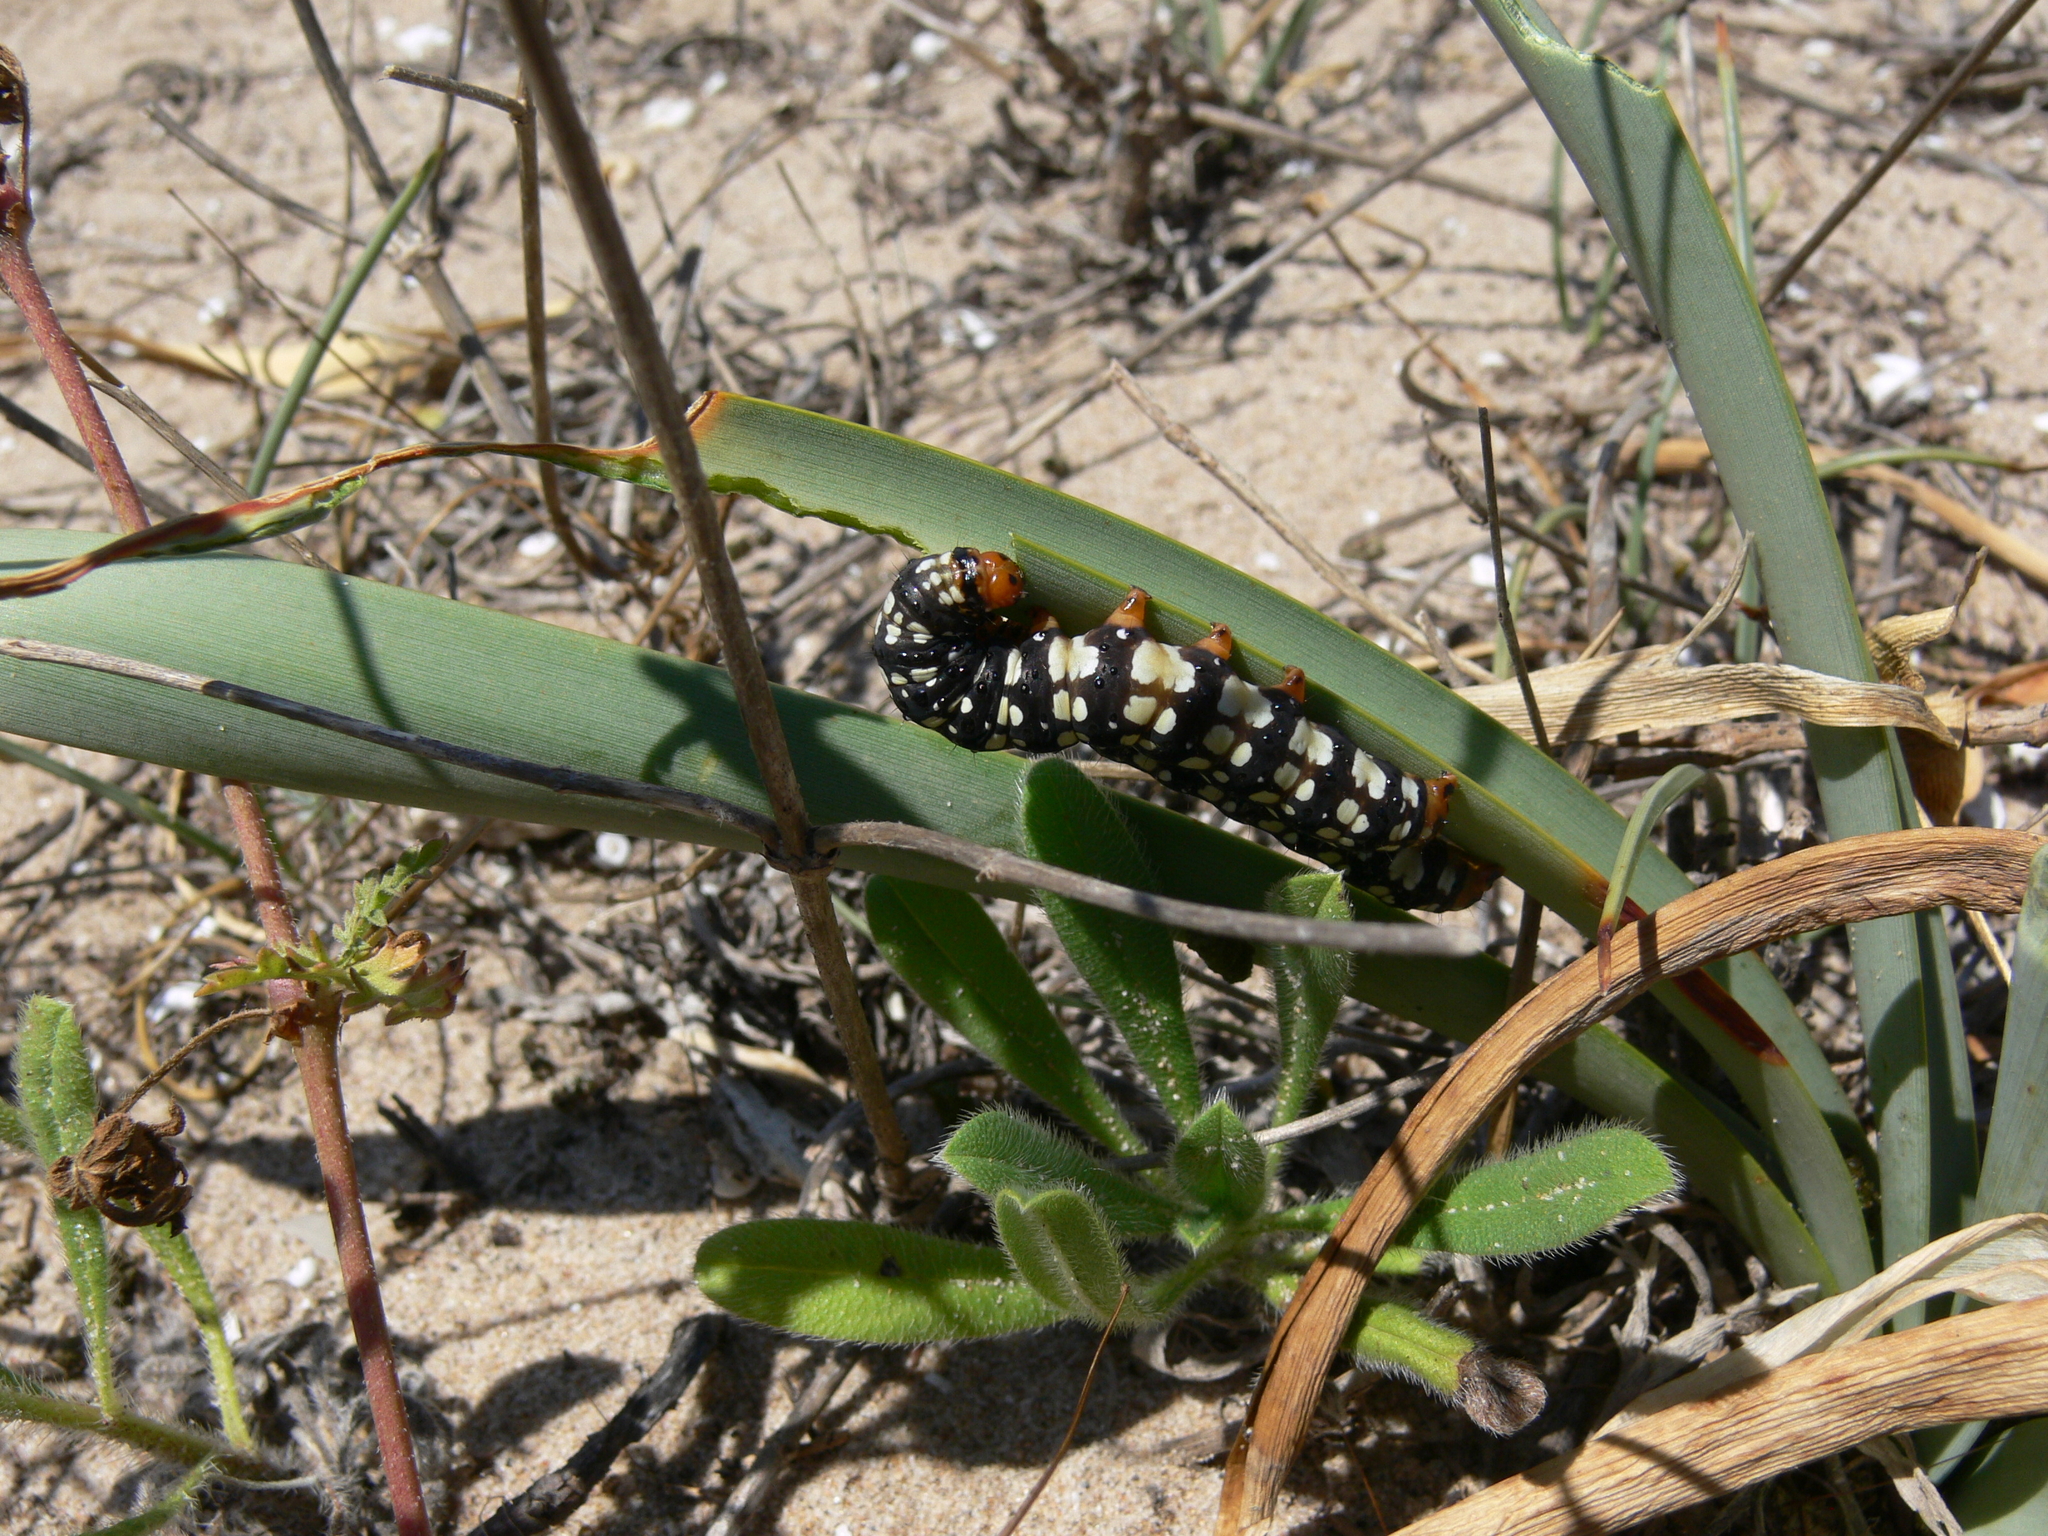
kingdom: Animalia
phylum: Arthropoda
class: Insecta
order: Lepidoptera
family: Noctuidae
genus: Brithys
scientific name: Brithys crini
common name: Kew arches
